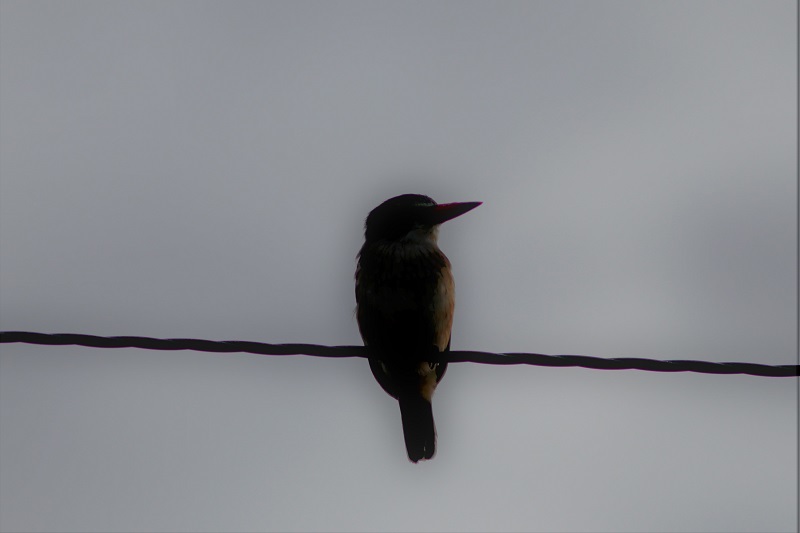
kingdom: Animalia
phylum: Chordata
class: Aves
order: Coraciiformes
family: Alcedinidae
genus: Halcyon
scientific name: Halcyon albiventris
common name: Brown-hooded kingfisher
